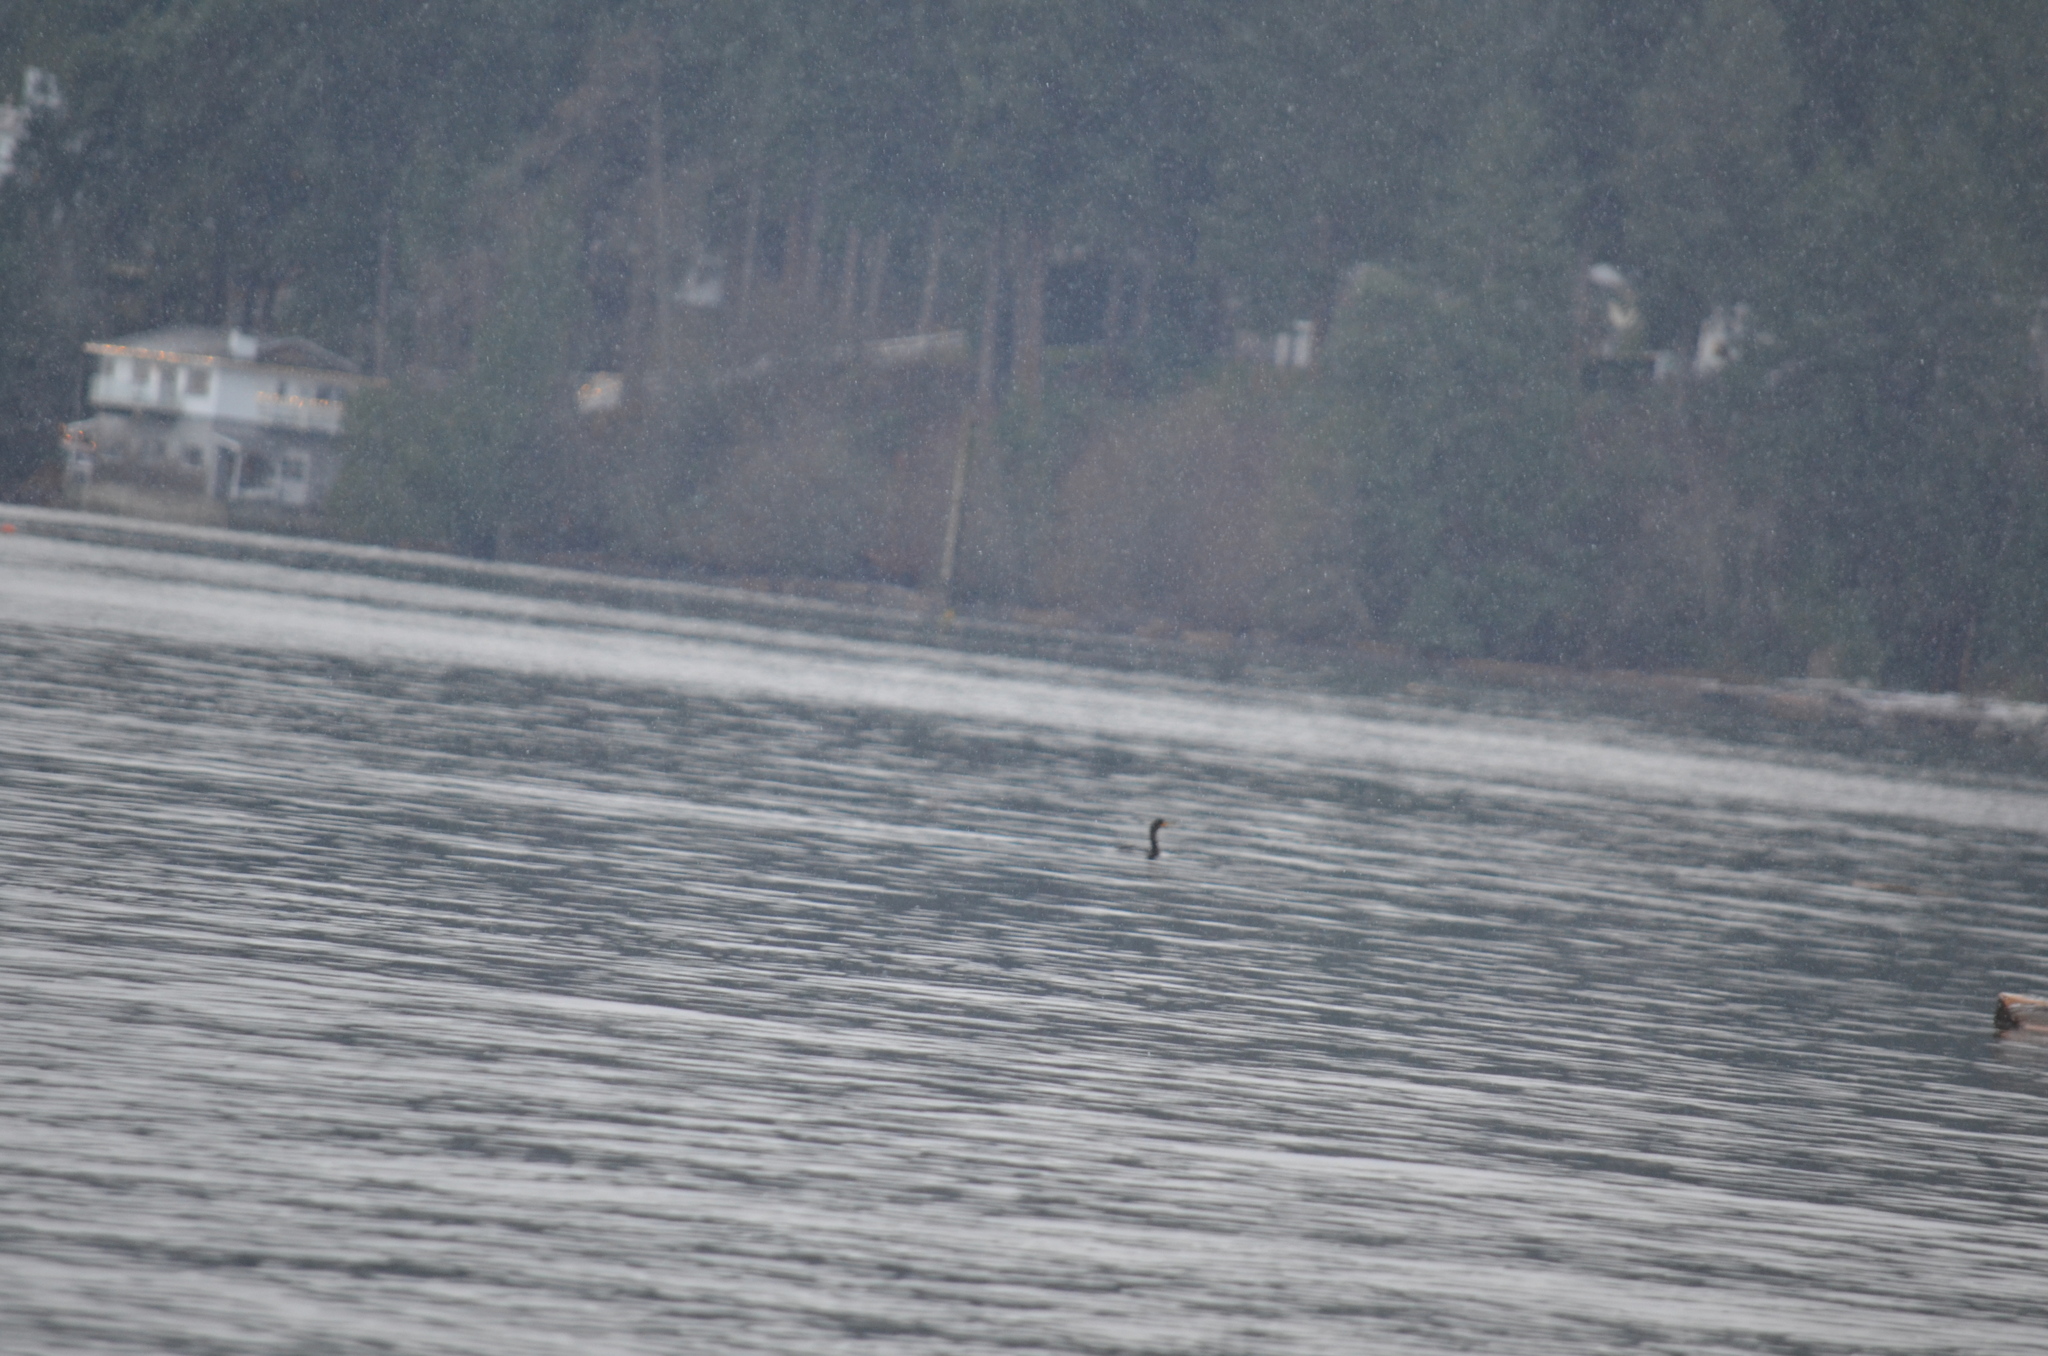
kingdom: Animalia
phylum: Chordata
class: Aves
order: Suliformes
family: Phalacrocoracidae
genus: Phalacrocorax
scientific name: Phalacrocorax auritus
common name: Double-crested cormorant
